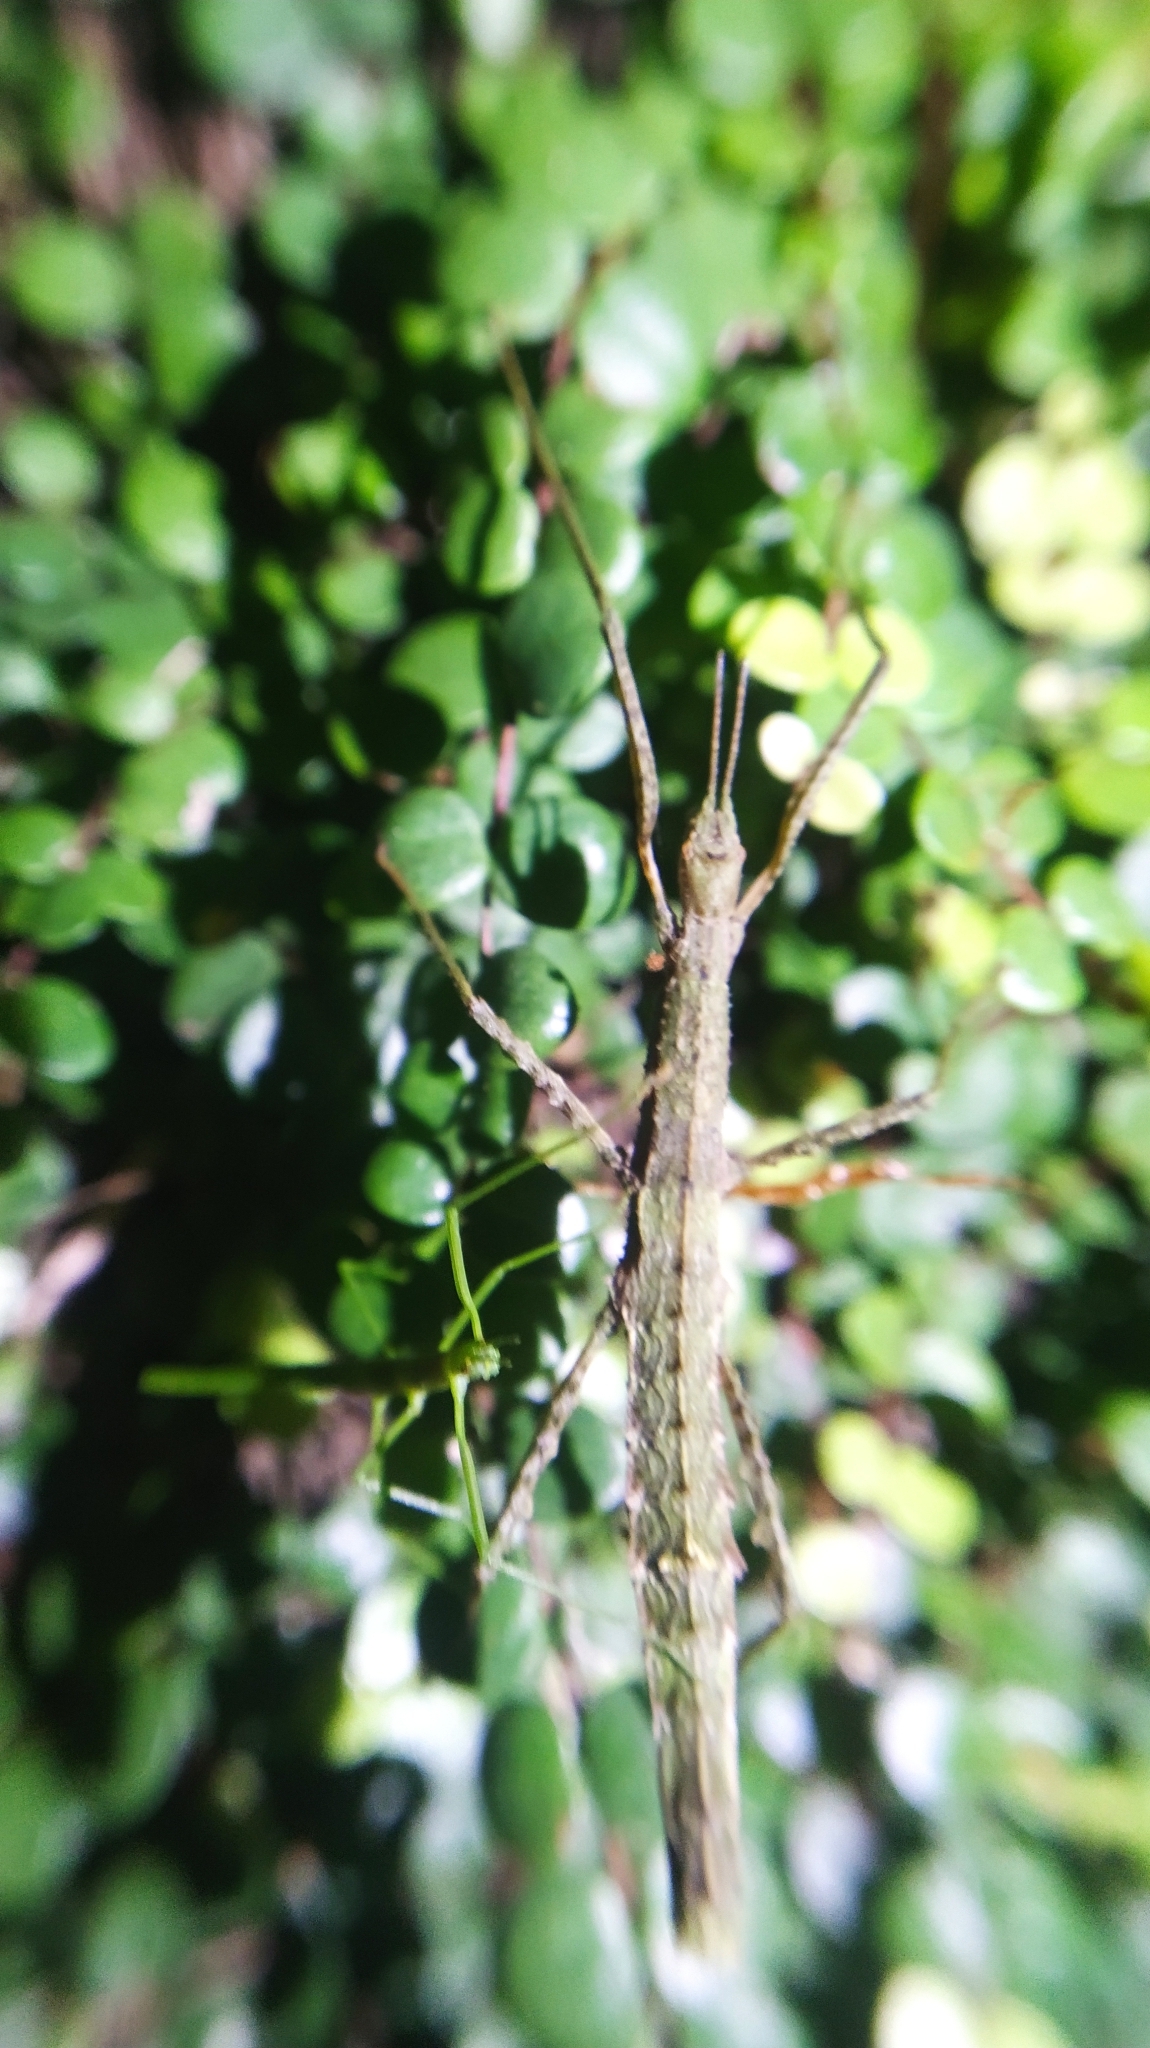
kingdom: Animalia
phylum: Arthropoda
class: Insecta
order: Phasmida
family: Phasmatidae
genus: Spinotectarchus
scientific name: Spinotectarchus acornutus
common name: The spiny ridge-backed stick insect
